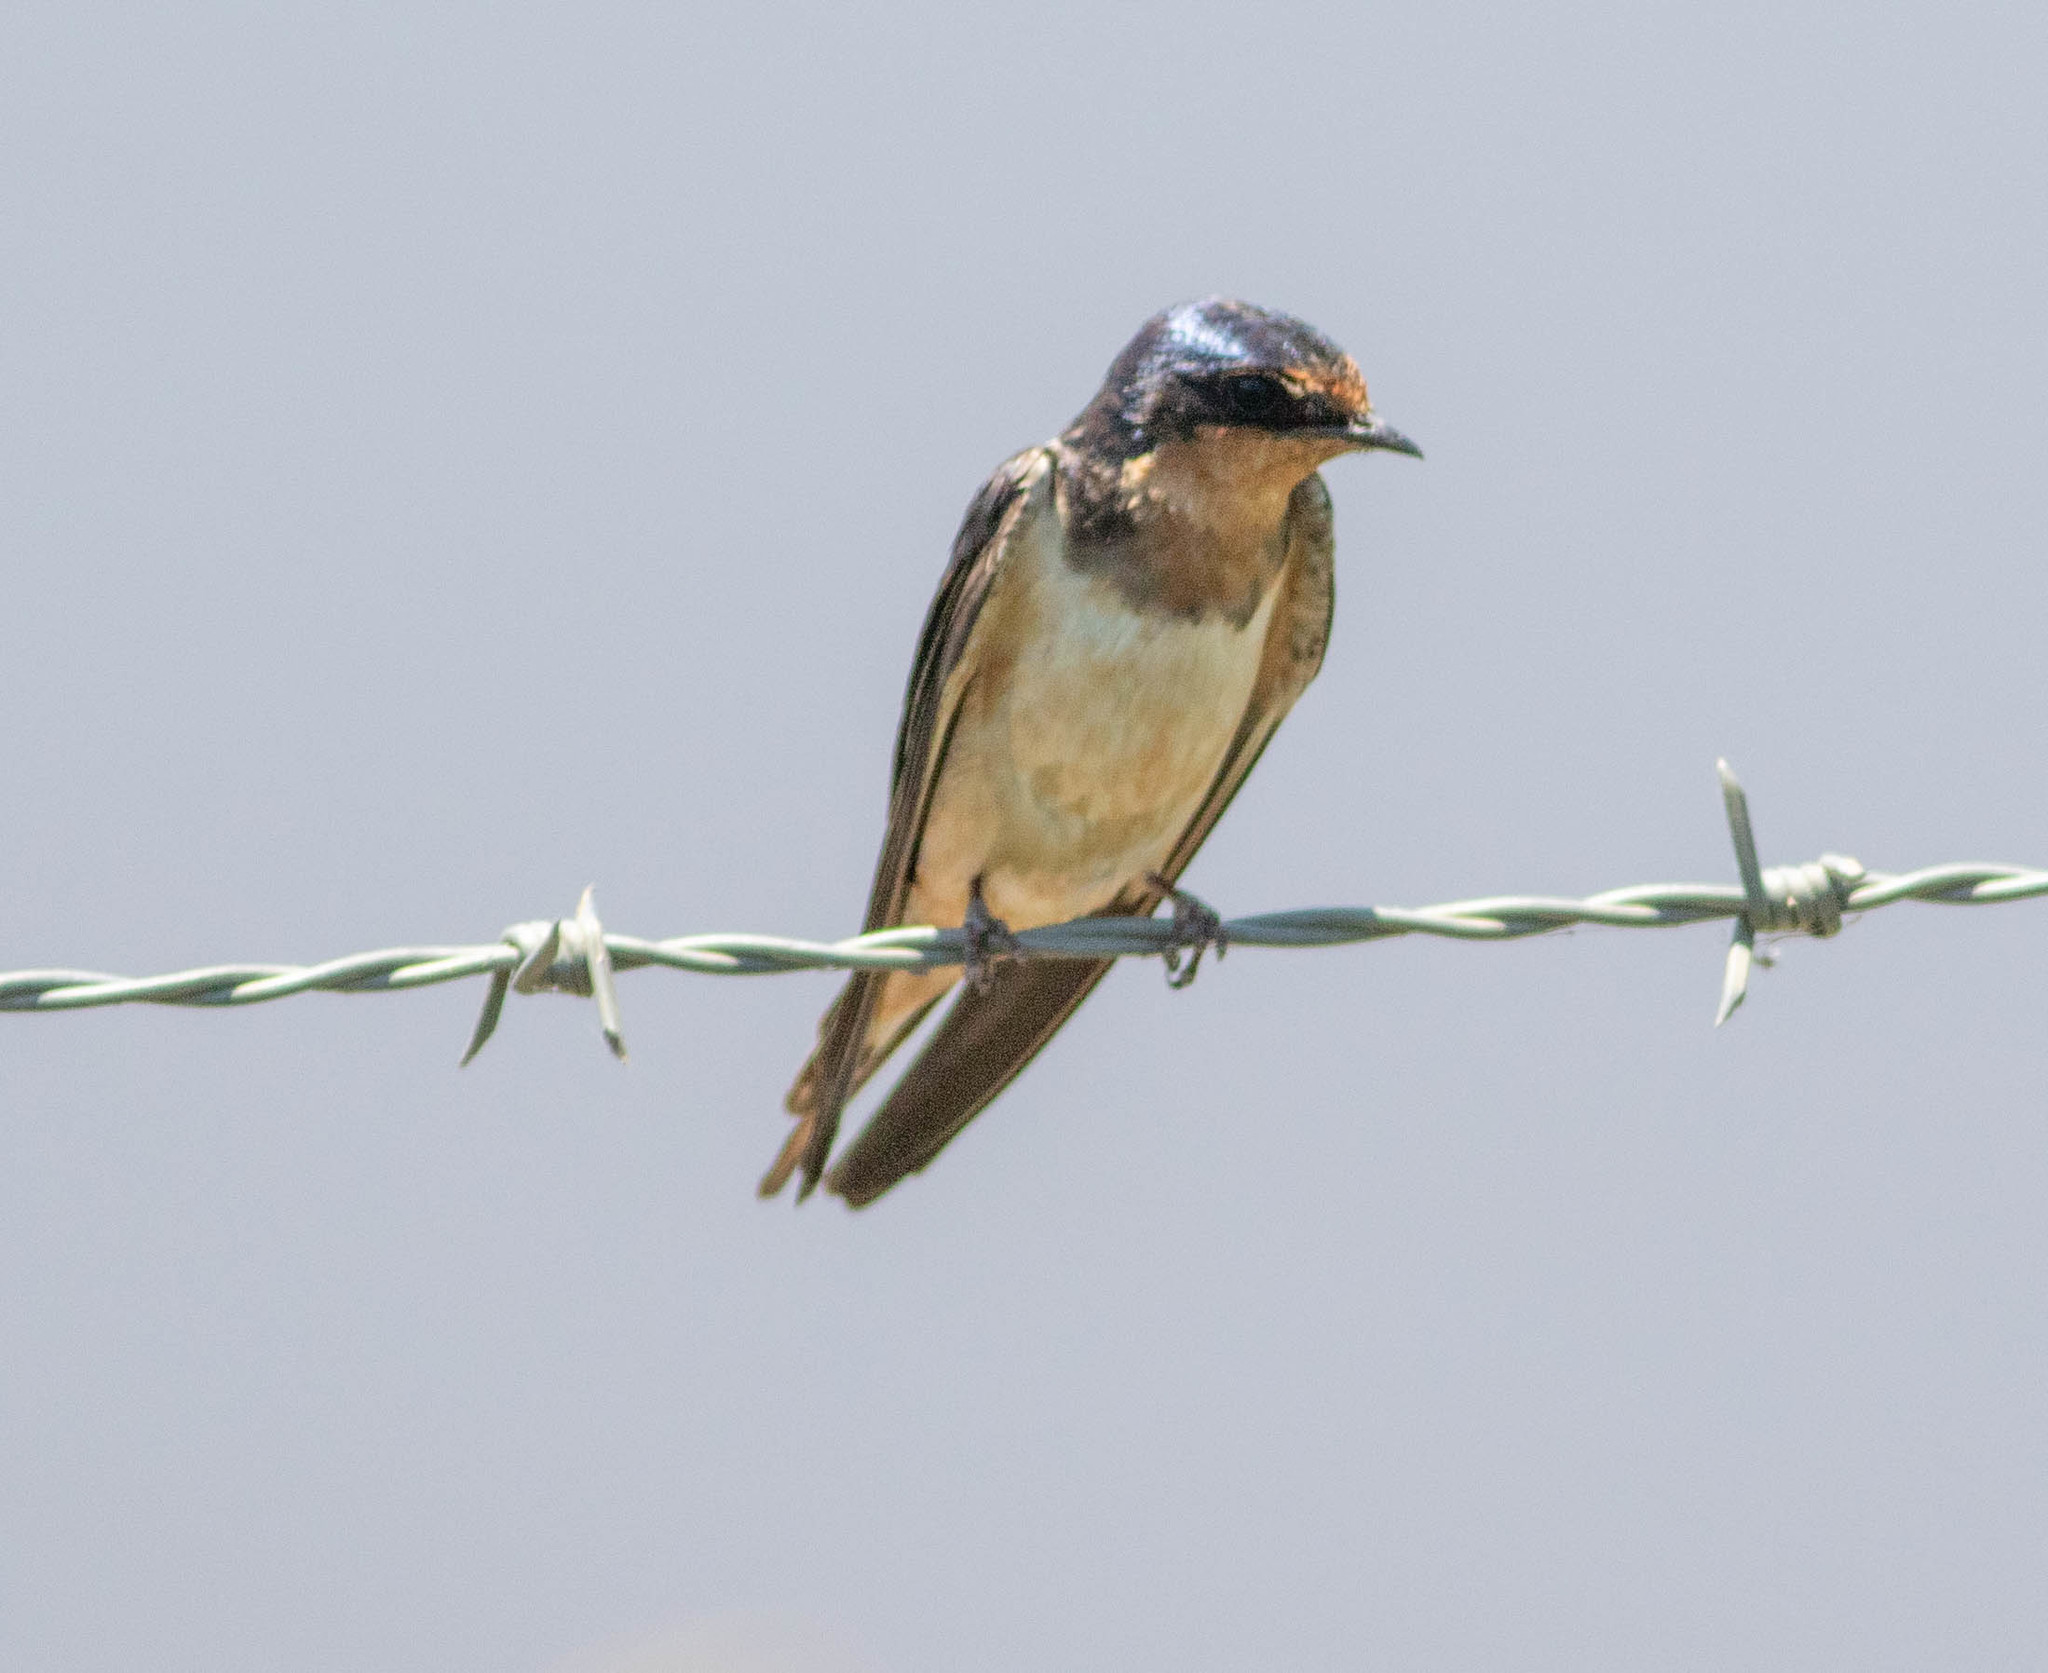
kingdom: Animalia
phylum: Chordata
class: Aves
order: Passeriformes
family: Hirundinidae
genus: Hirundo
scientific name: Hirundo rustica
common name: Barn swallow
